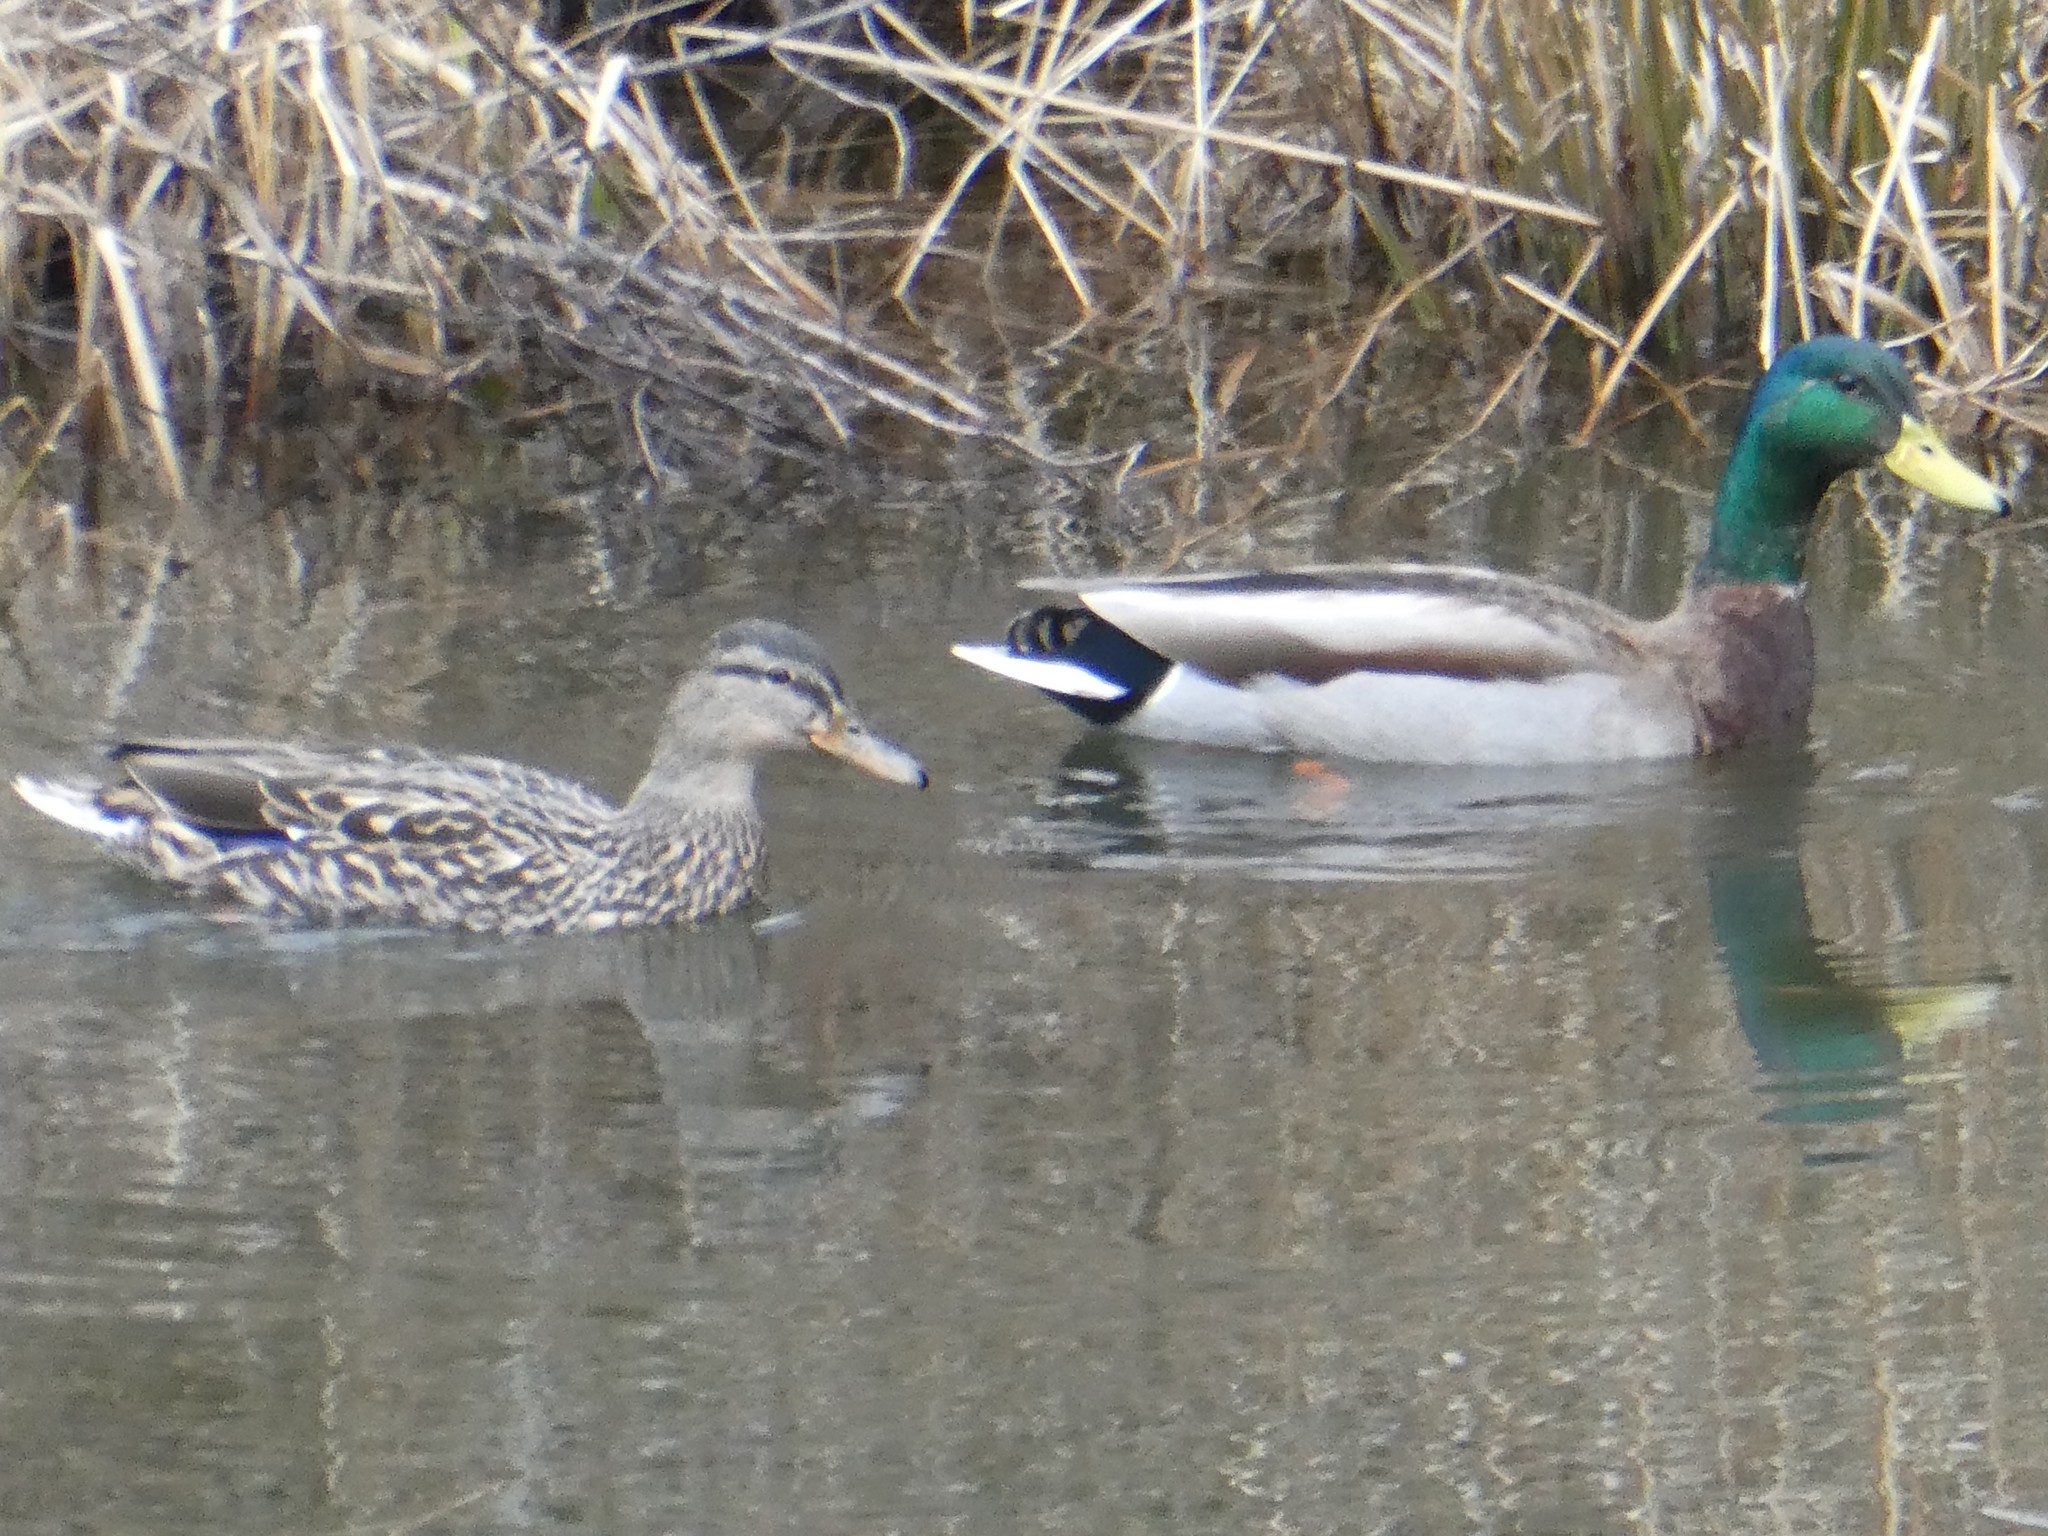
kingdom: Animalia
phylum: Chordata
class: Aves
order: Anseriformes
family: Anatidae
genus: Anas
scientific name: Anas platyrhynchos
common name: Mallard
